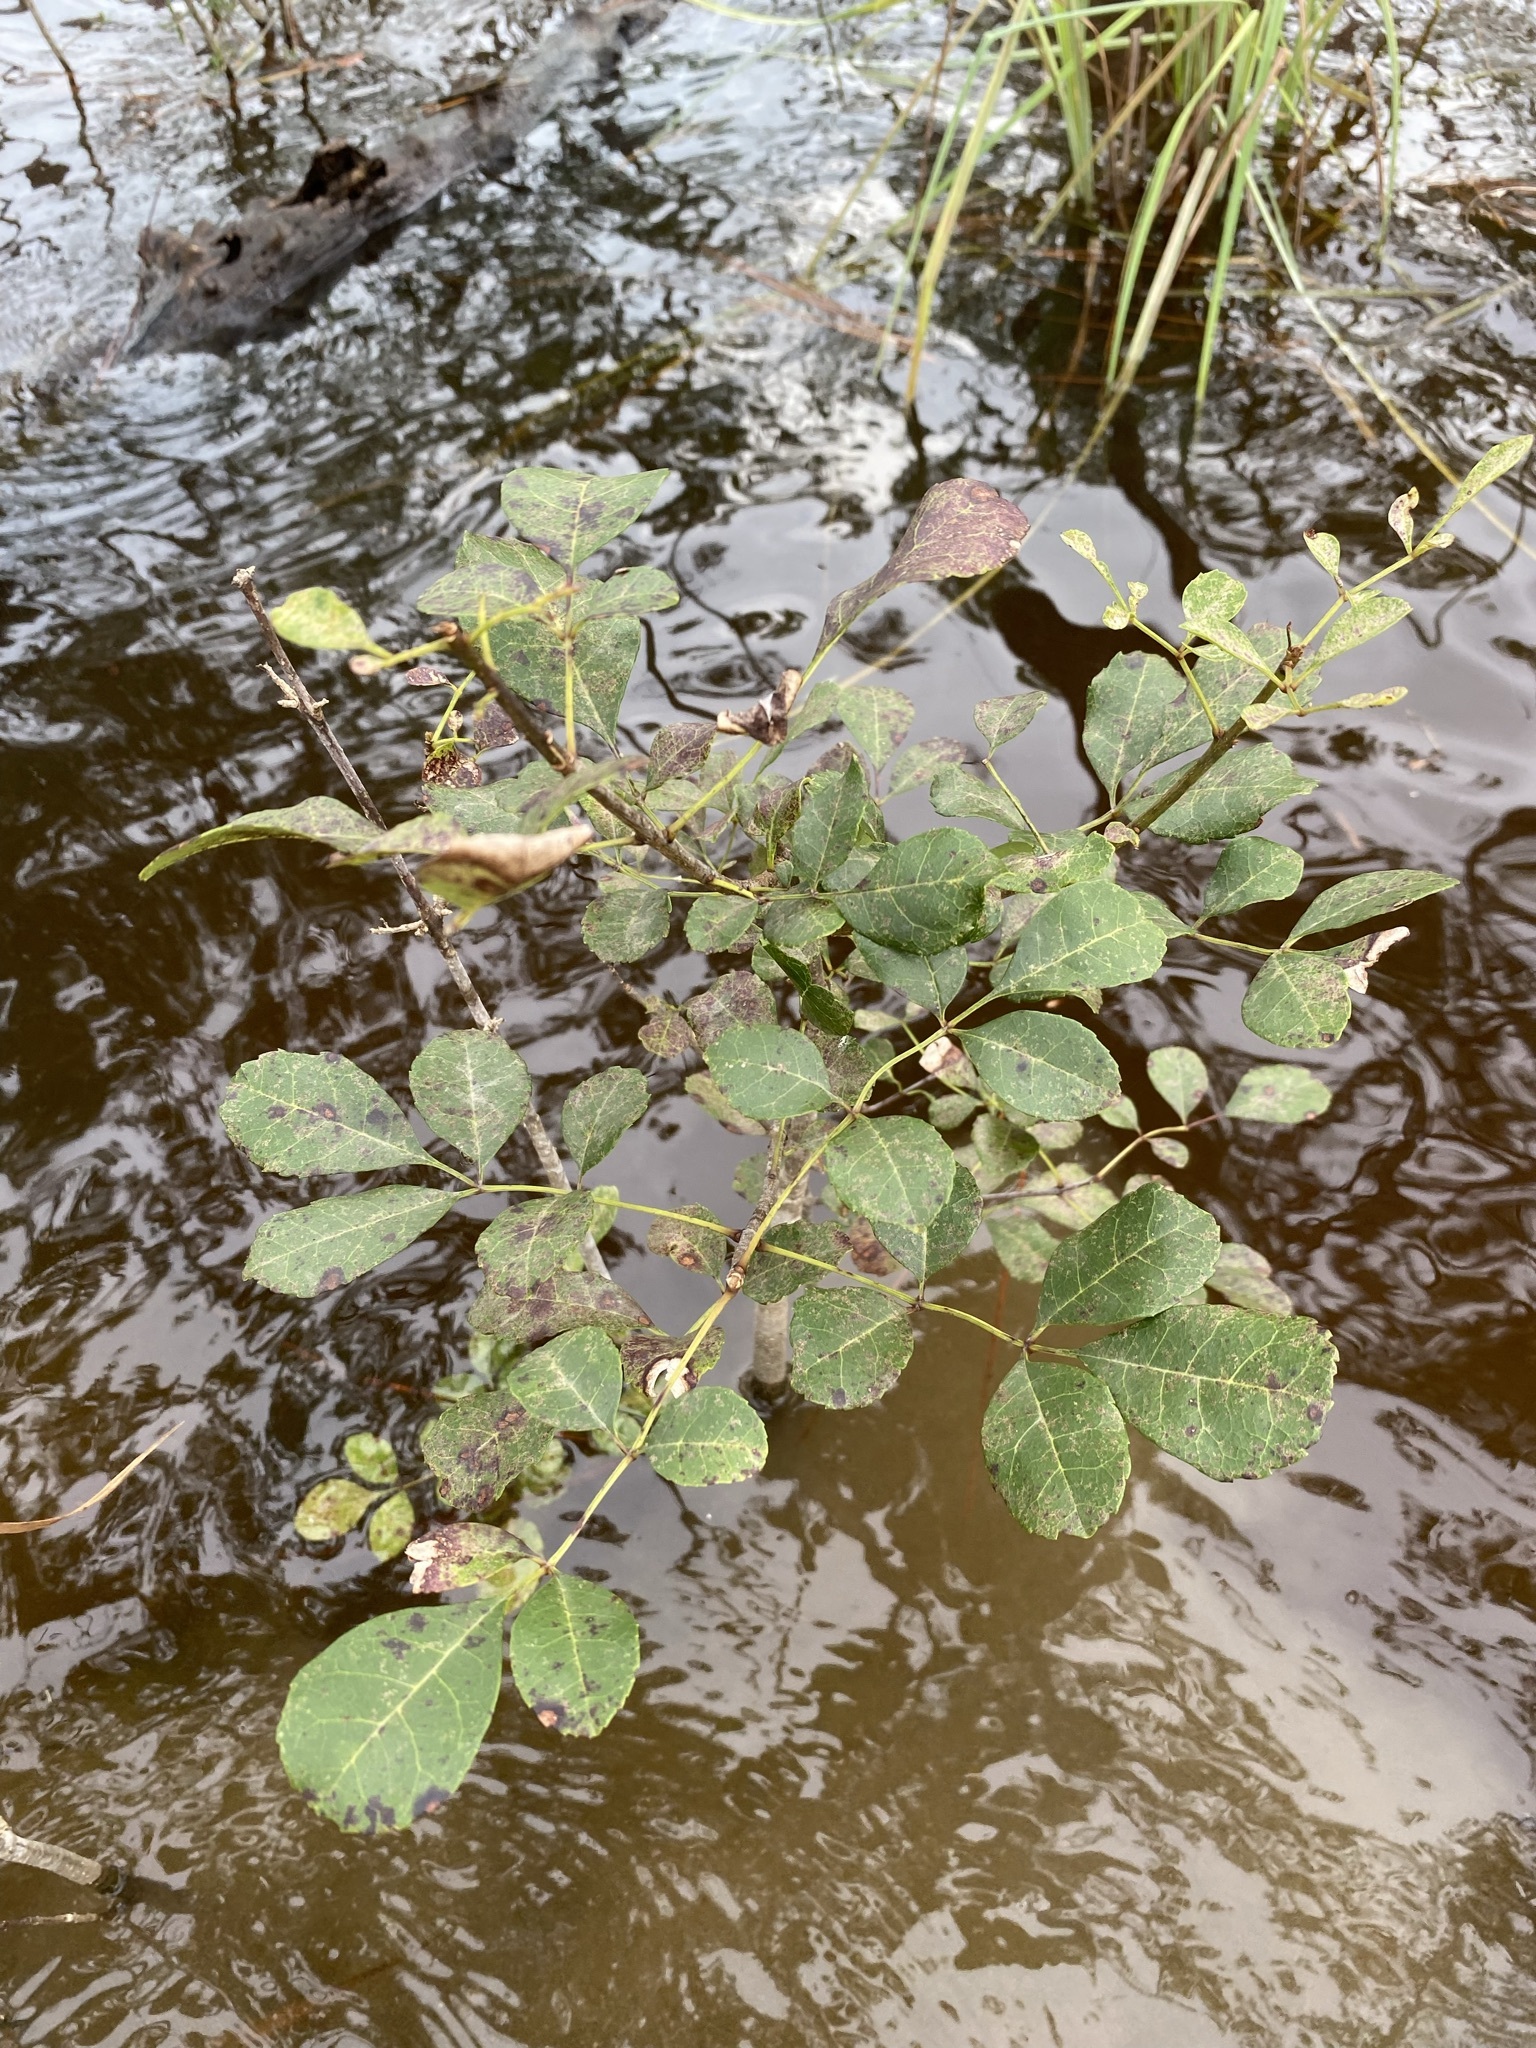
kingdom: Plantae
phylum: Tracheophyta
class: Magnoliopsida
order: Lamiales
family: Oleaceae
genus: Fraxinus
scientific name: Fraxinus caroliniana
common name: Carolina ash
